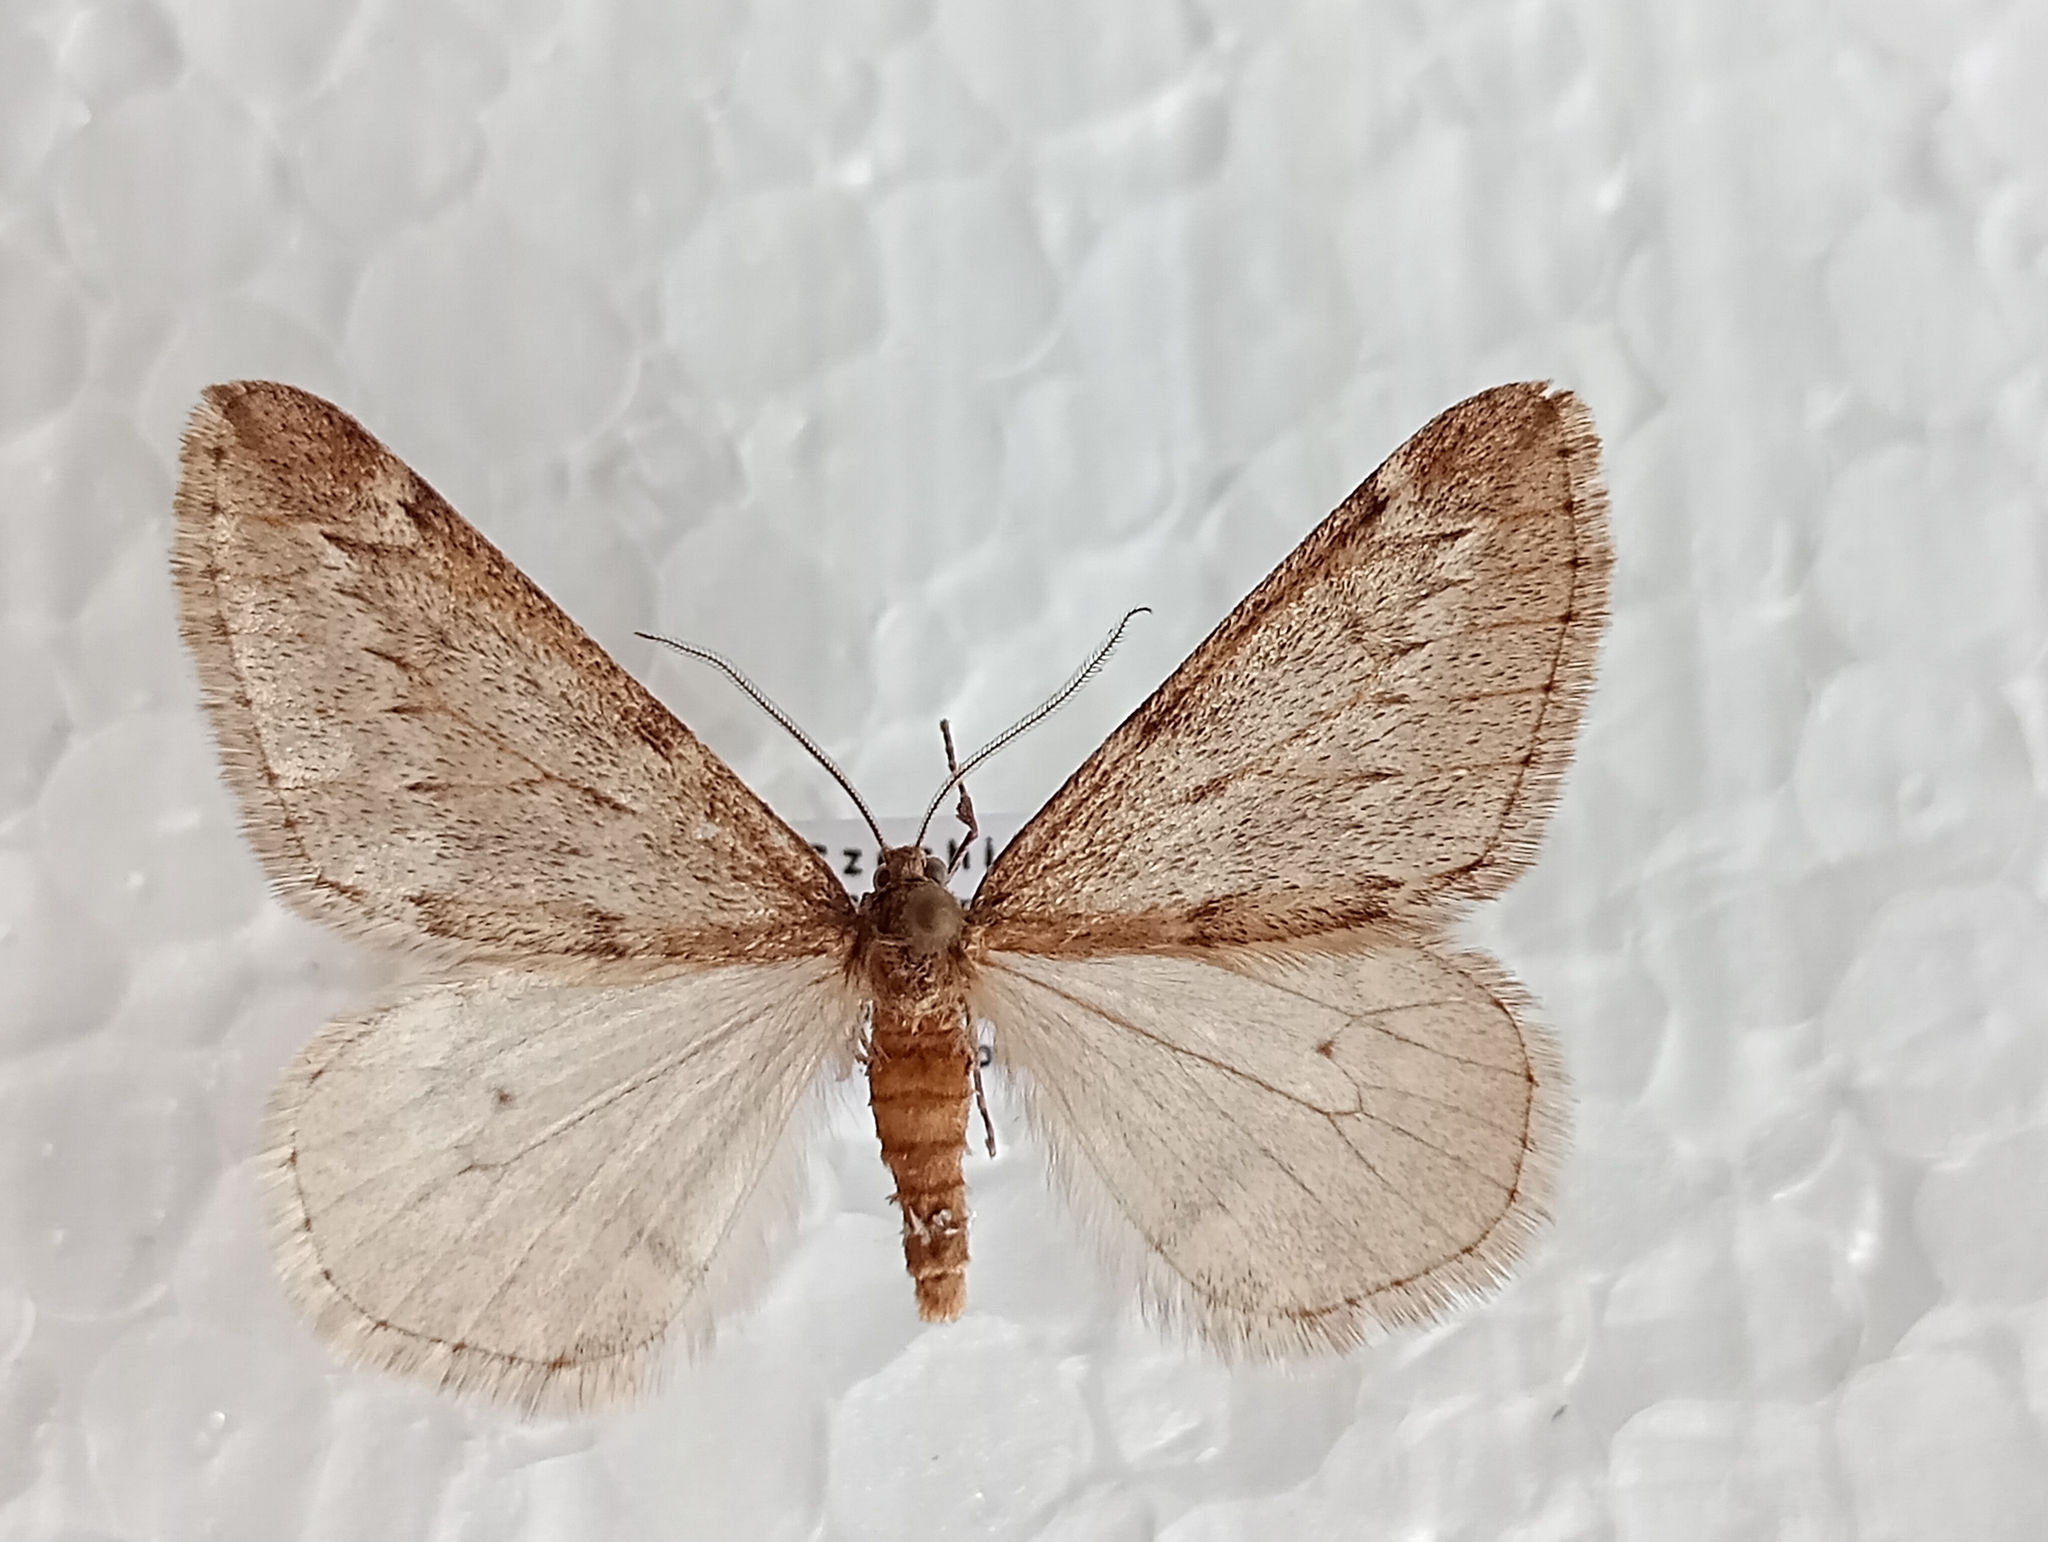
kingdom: Animalia
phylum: Arthropoda
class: Insecta
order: Lepidoptera
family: Geometridae
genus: Alsophila
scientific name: Alsophila aescularia
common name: March moth
